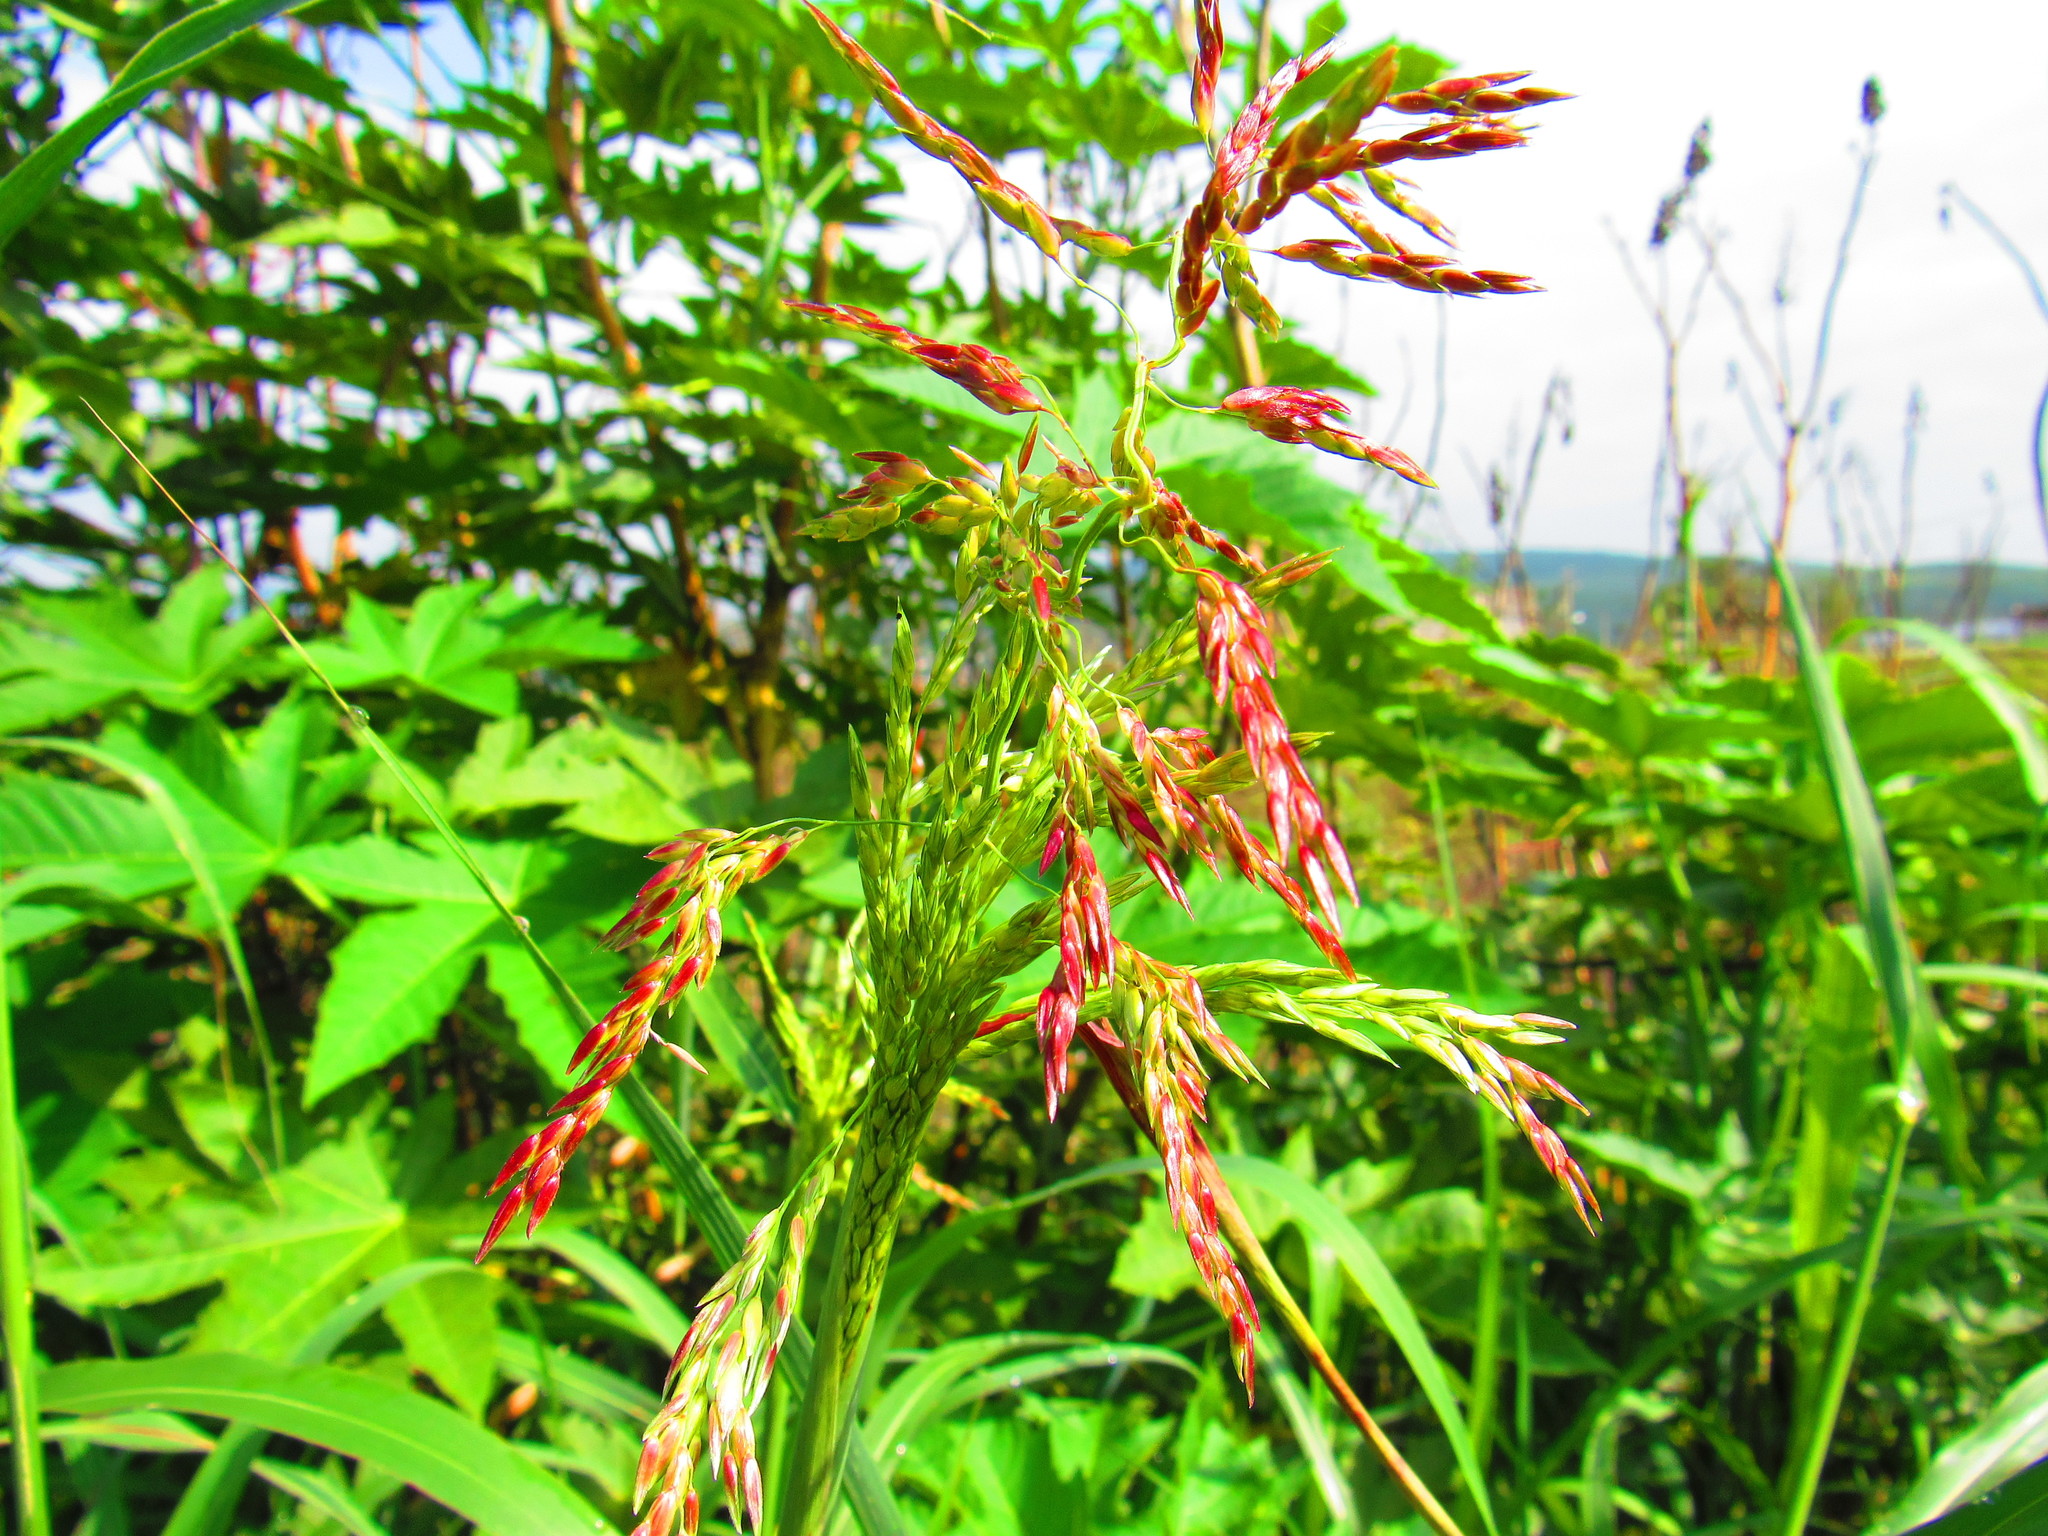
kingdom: Plantae
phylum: Tracheophyta
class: Liliopsida
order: Poales
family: Poaceae
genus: Sorghum
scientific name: Sorghum halepense
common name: Johnson-grass
